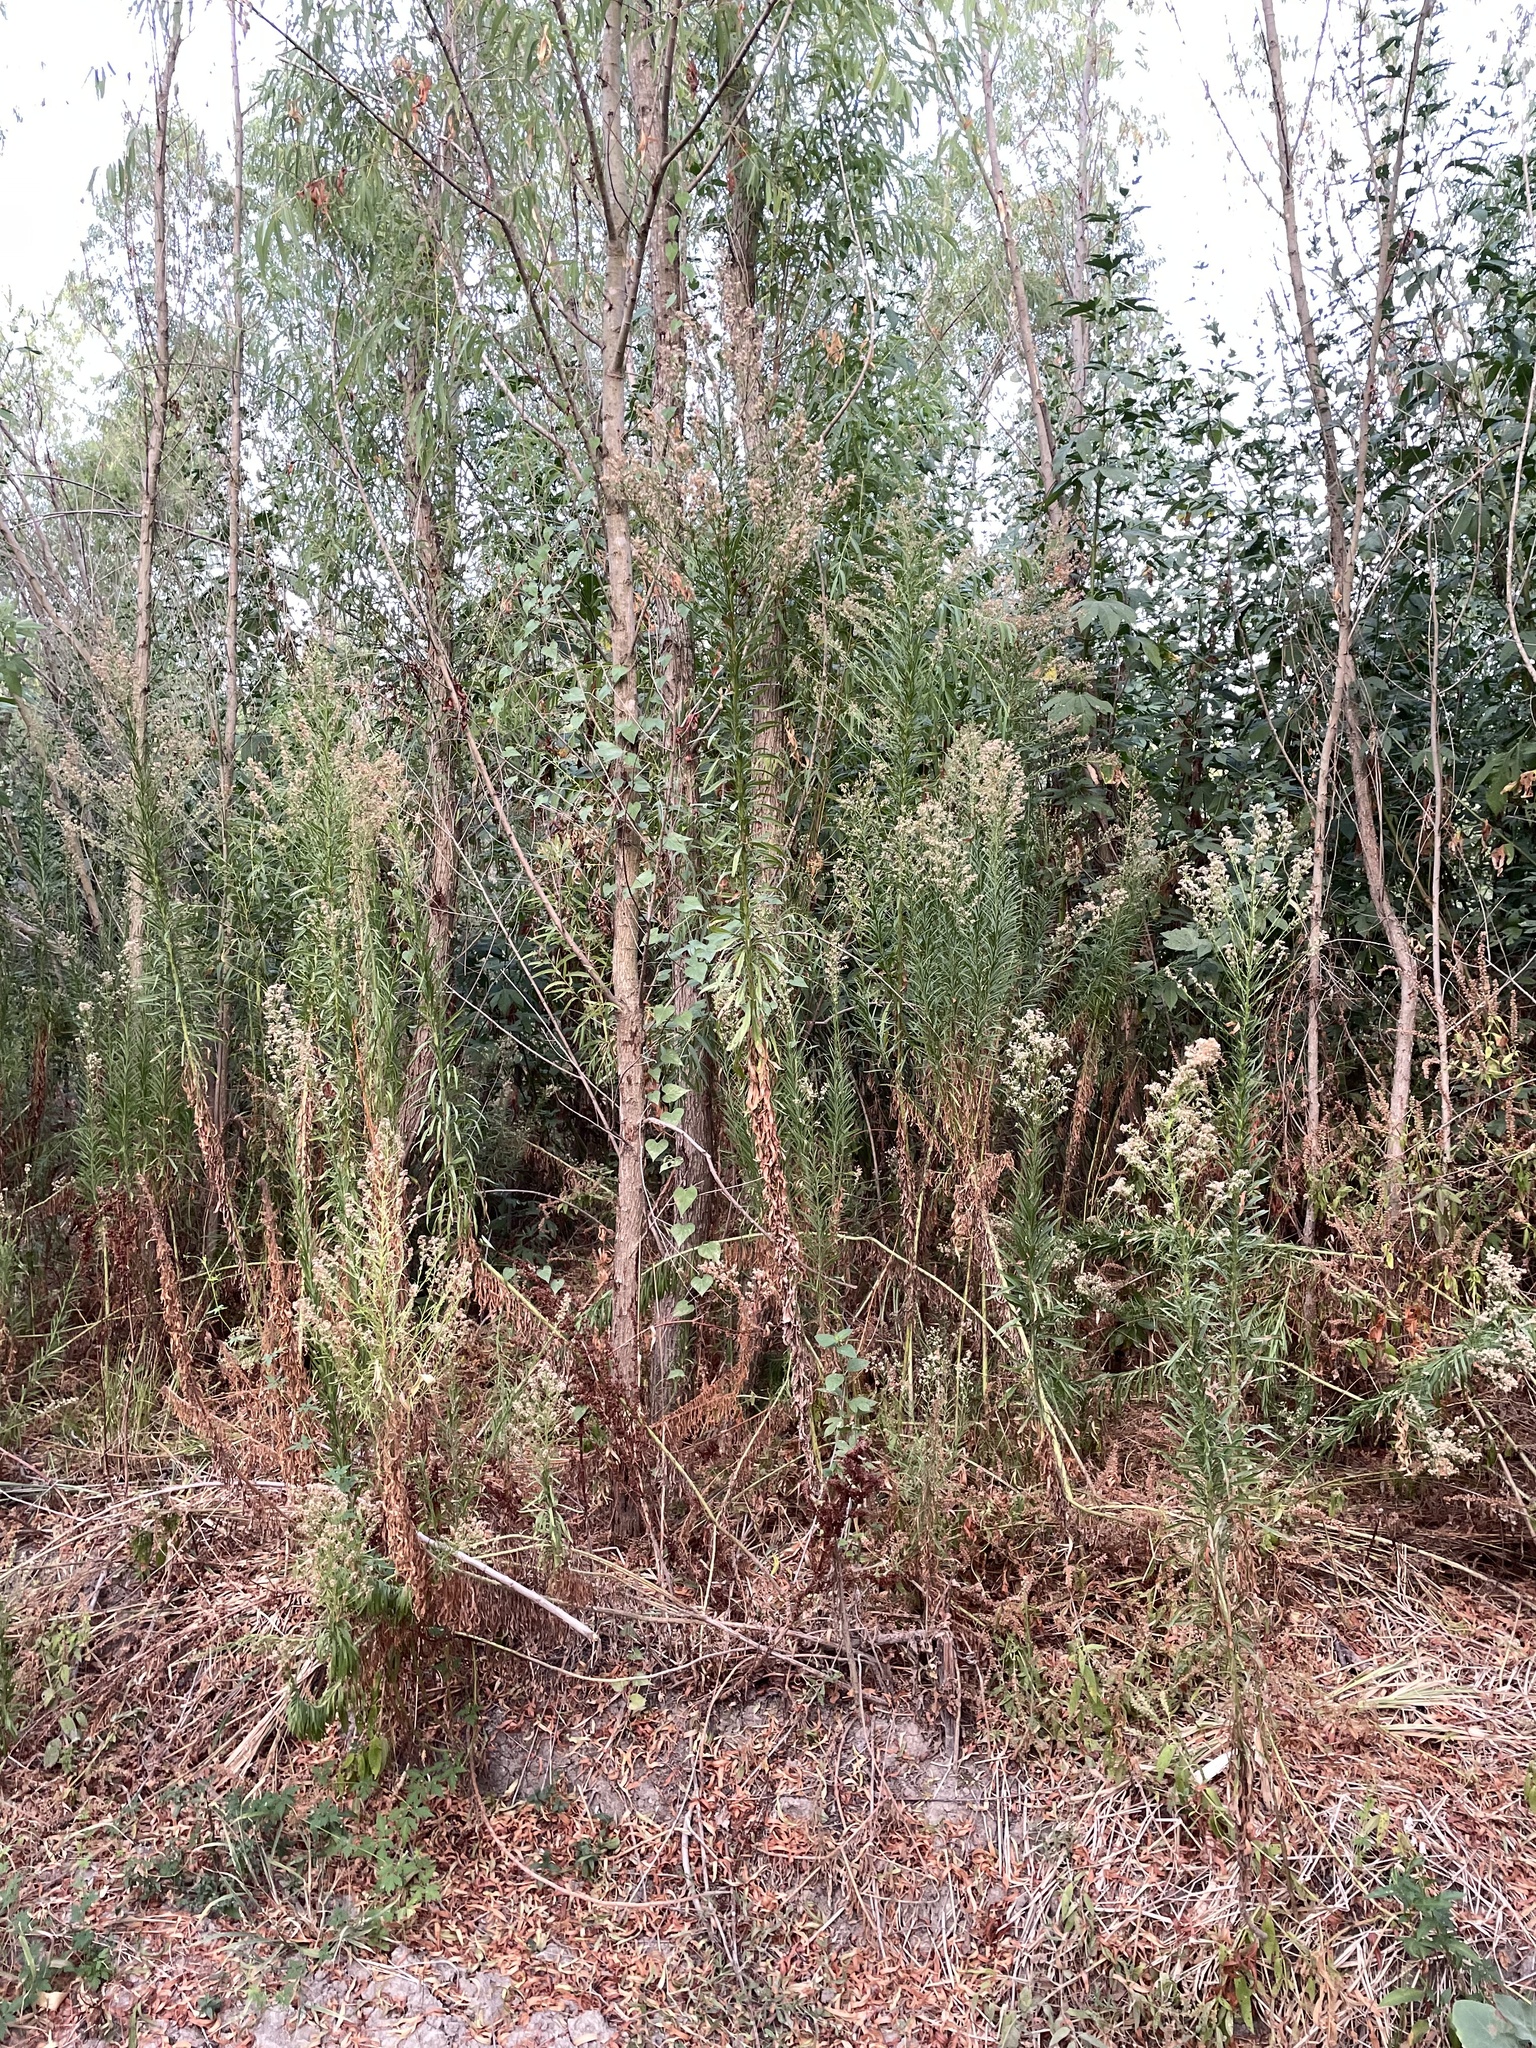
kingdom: Plantae
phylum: Tracheophyta
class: Magnoliopsida
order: Asterales
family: Asteraceae
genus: Erigeron
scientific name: Erigeron canadensis
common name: Canadian fleabane
